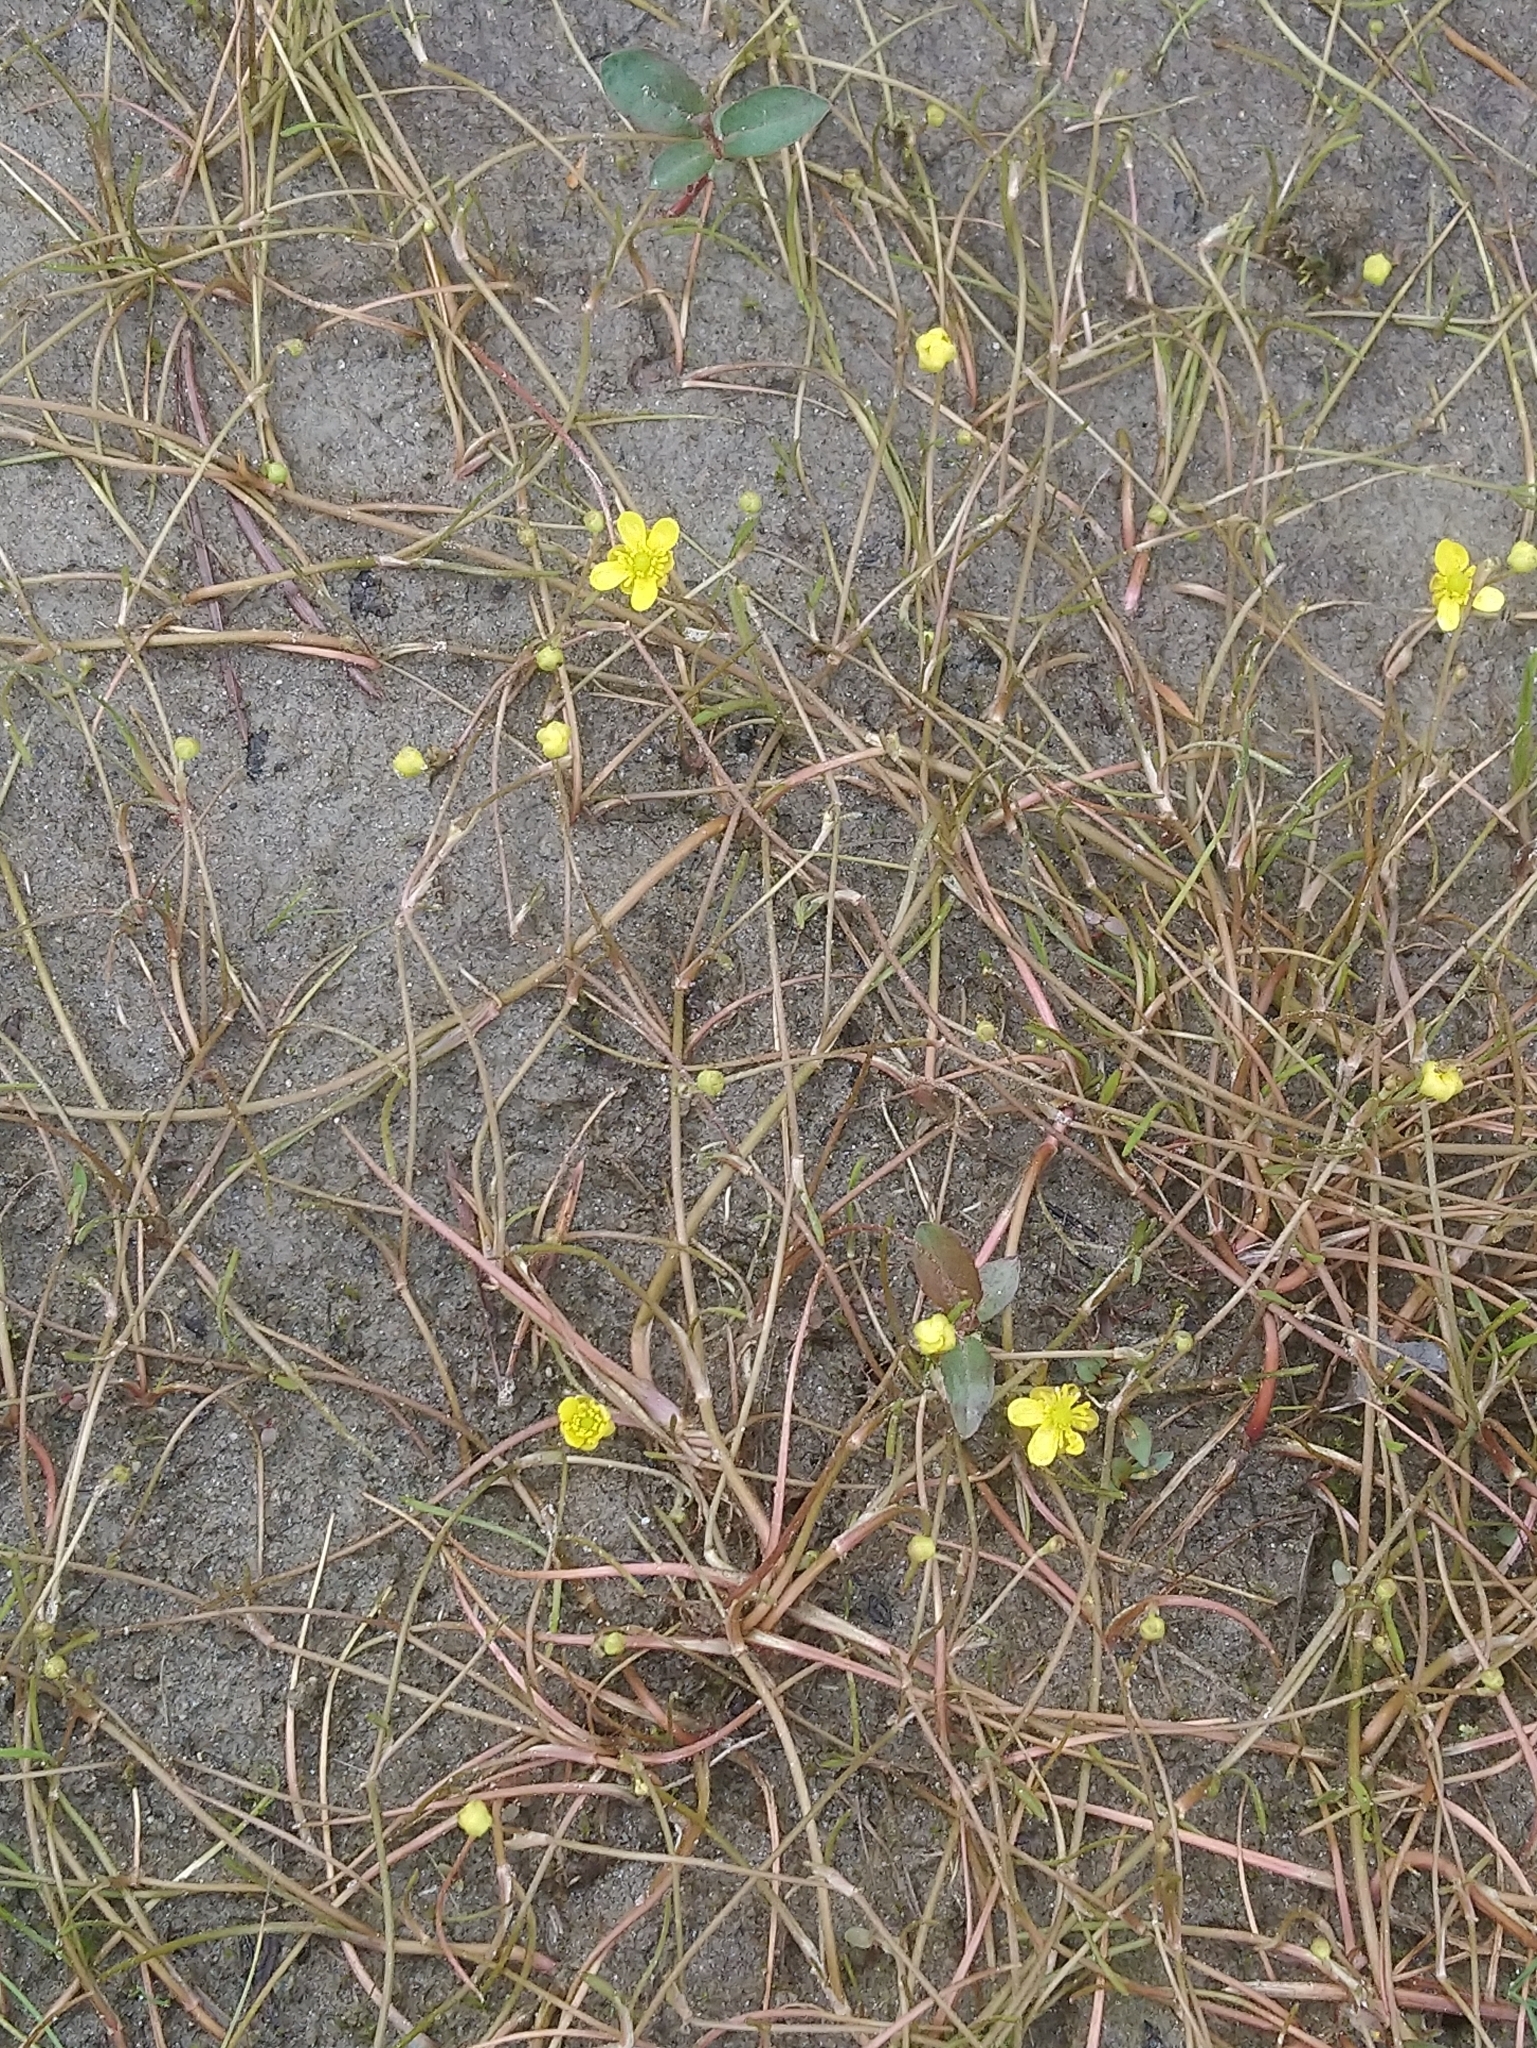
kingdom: Plantae
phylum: Tracheophyta
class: Magnoliopsida
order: Ranunculales
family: Ranunculaceae
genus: Ranunculus
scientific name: Ranunculus reptans
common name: Creeping spearwort
